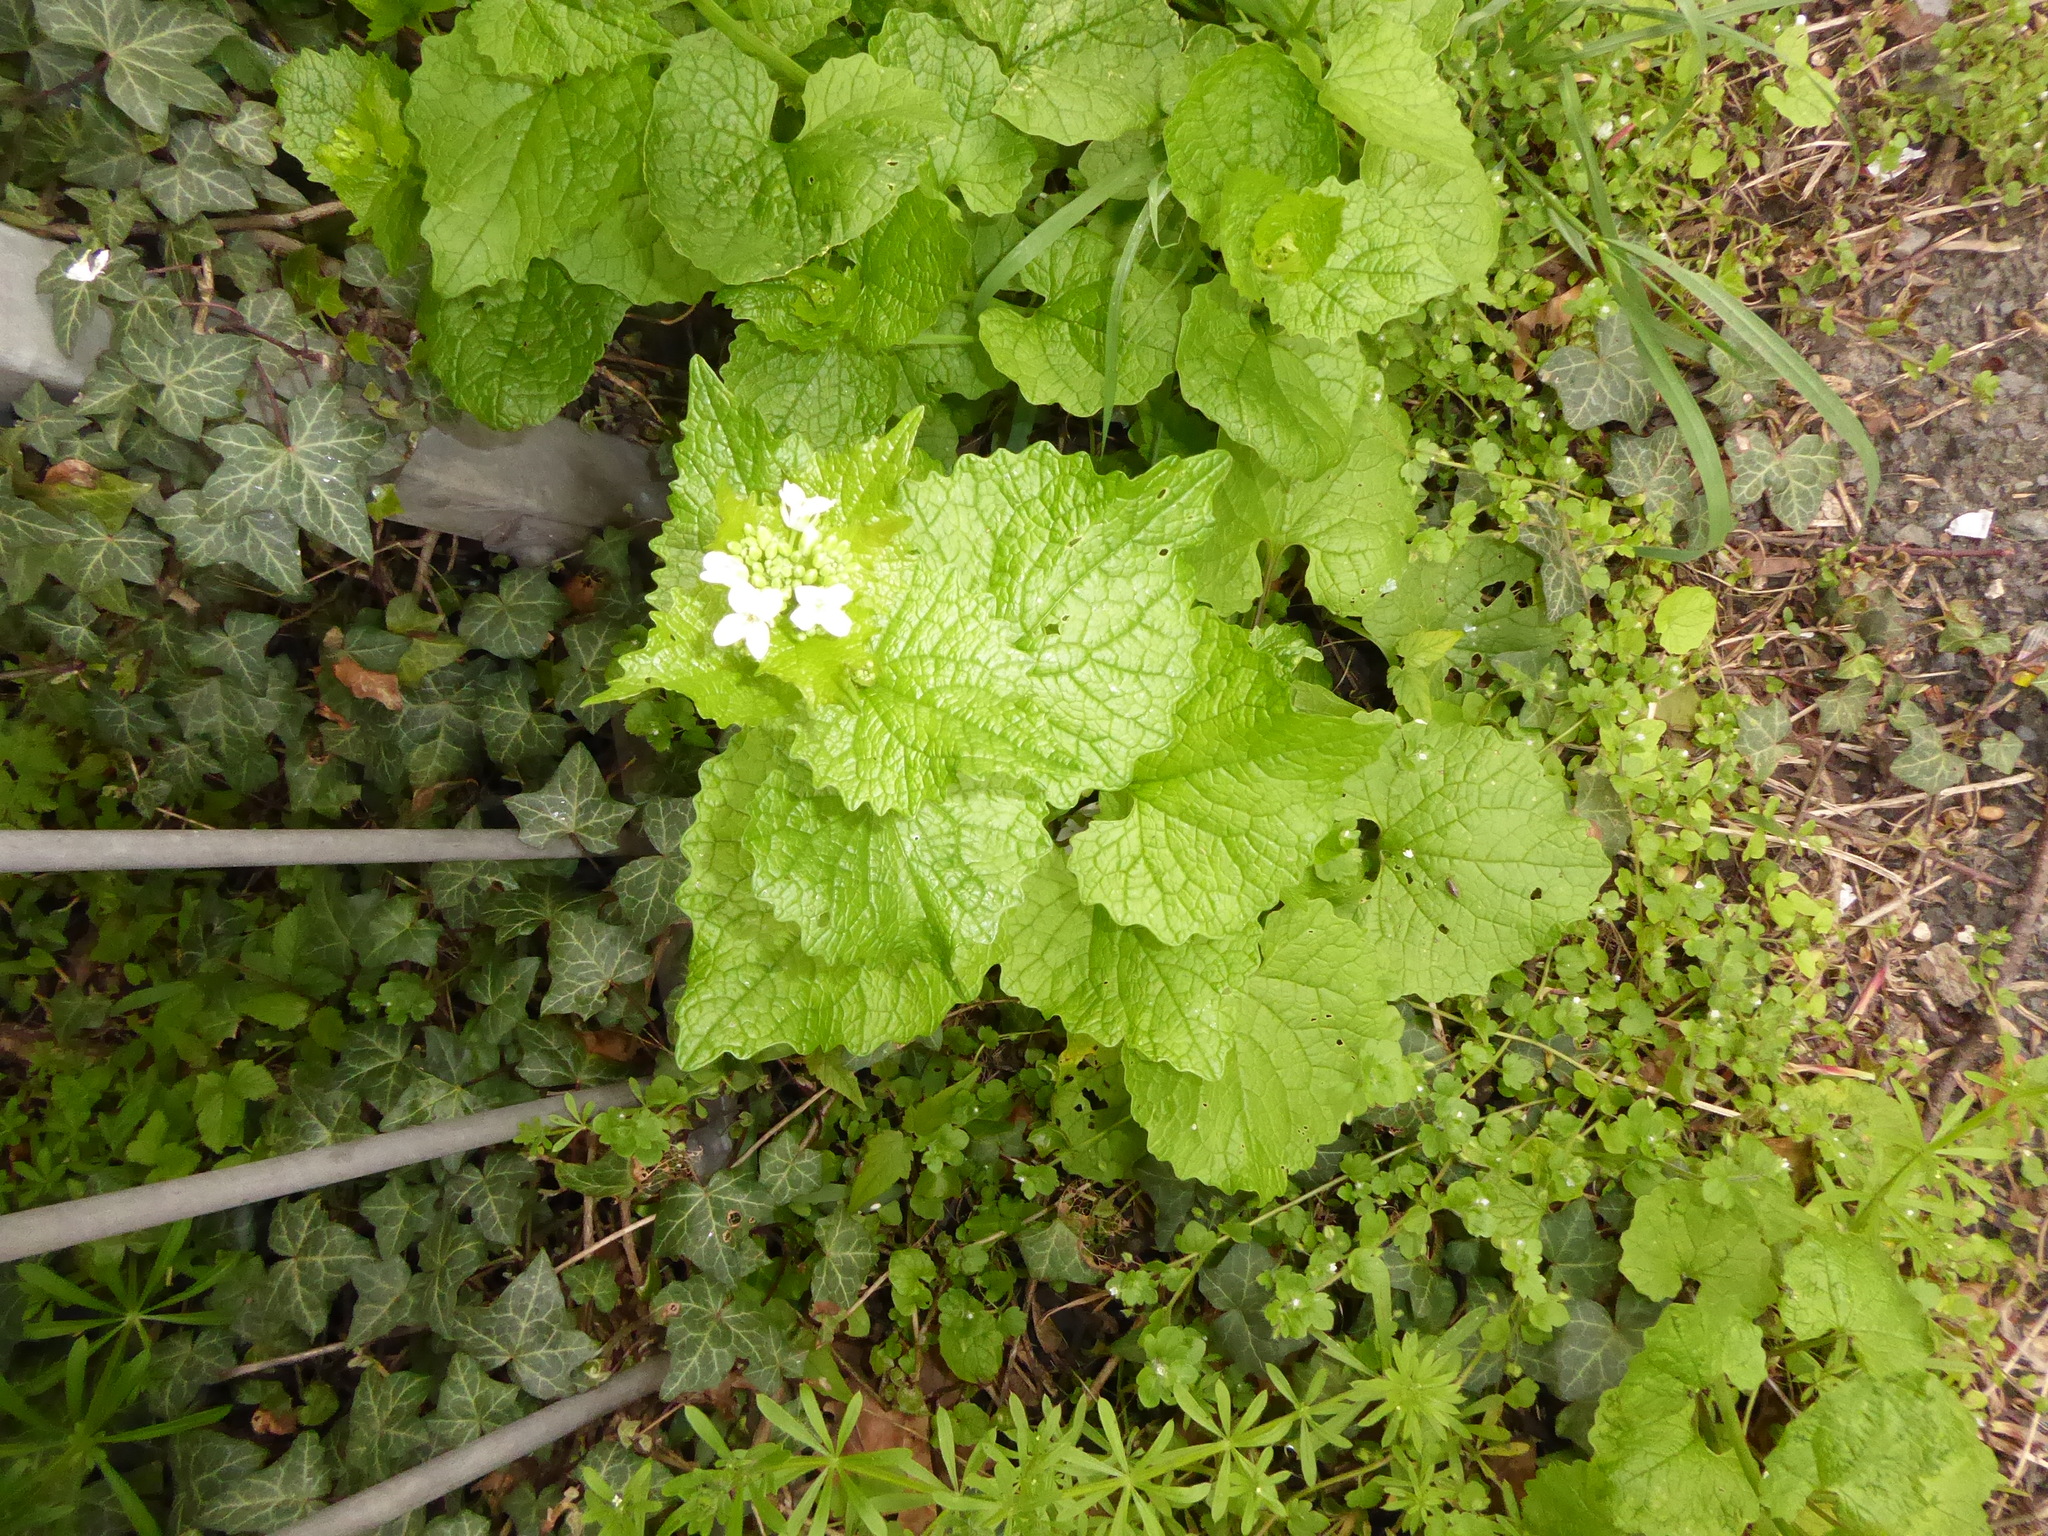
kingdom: Plantae
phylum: Tracheophyta
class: Magnoliopsida
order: Brassicales
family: Brassicaceae
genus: Alliaria
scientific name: Alliaria petiolata
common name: Garlic mustard
